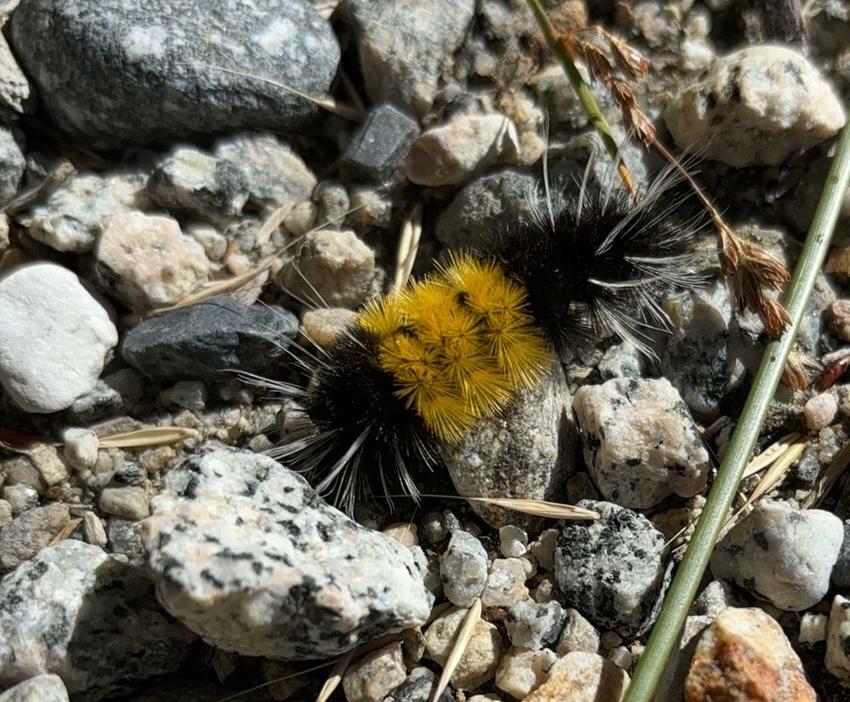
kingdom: Animalia
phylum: Arthropoda
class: Insecta
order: Lepidoptera
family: Erebidae
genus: Lophocampa
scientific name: Lophocampa maculata
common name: Spotted tussock moth
